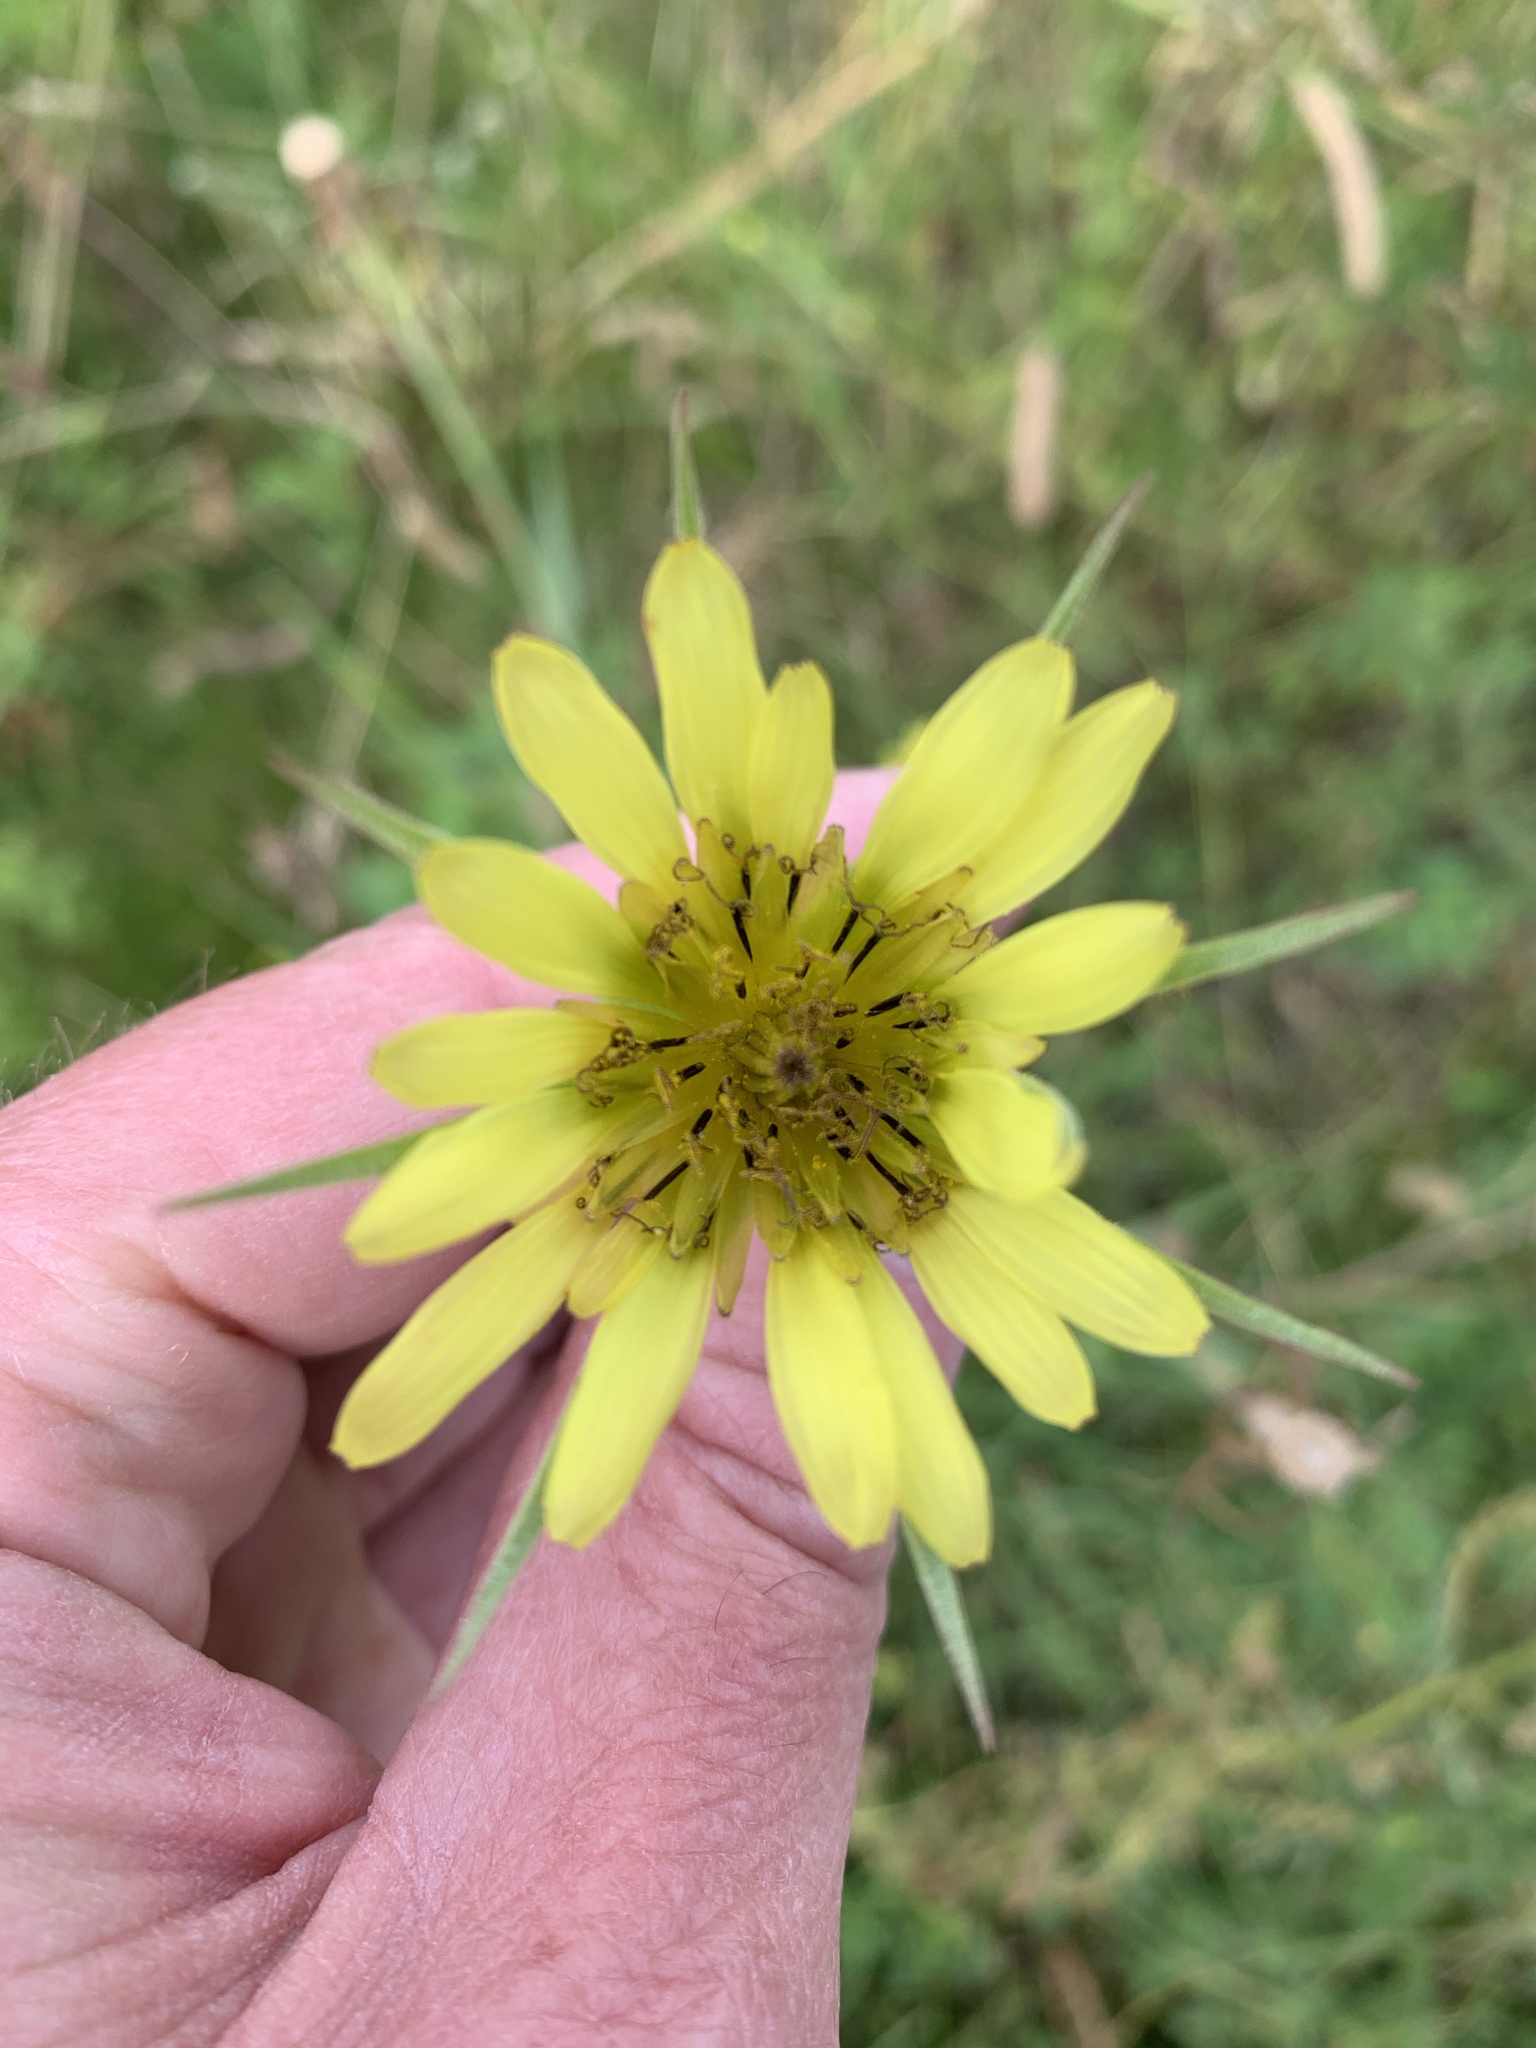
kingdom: Plantae
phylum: Tracheophyta
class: Magnoliopsida
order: Asterales
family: Asteraceae
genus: Tragopogon
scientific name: Tragopogon dubius
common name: Yellow salsify
